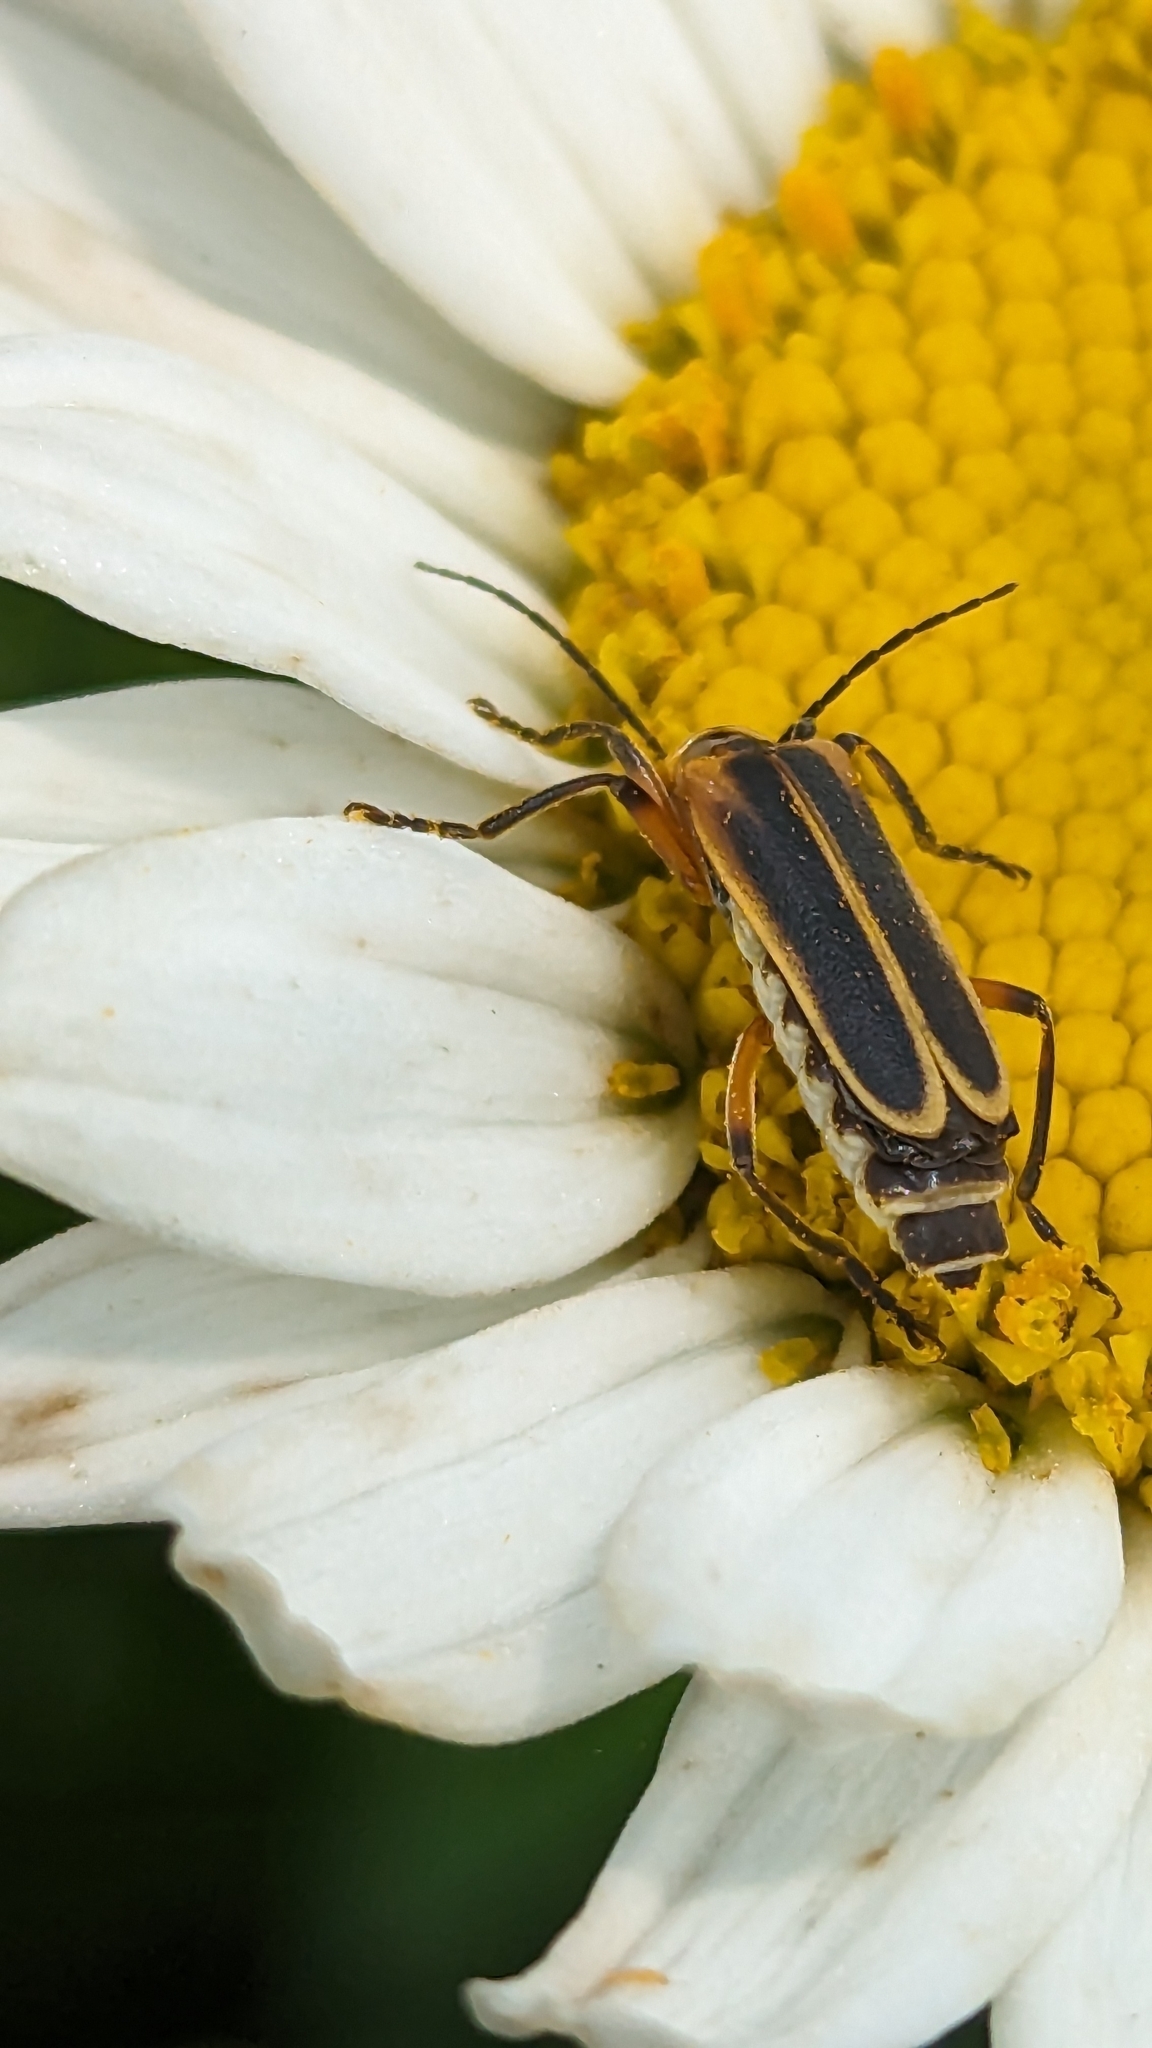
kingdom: Animalia
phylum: Arthropoda
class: Insecta
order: Coleoptera
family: Cantharidae
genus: Chauliognathus
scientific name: Chauliognathus marginatus
